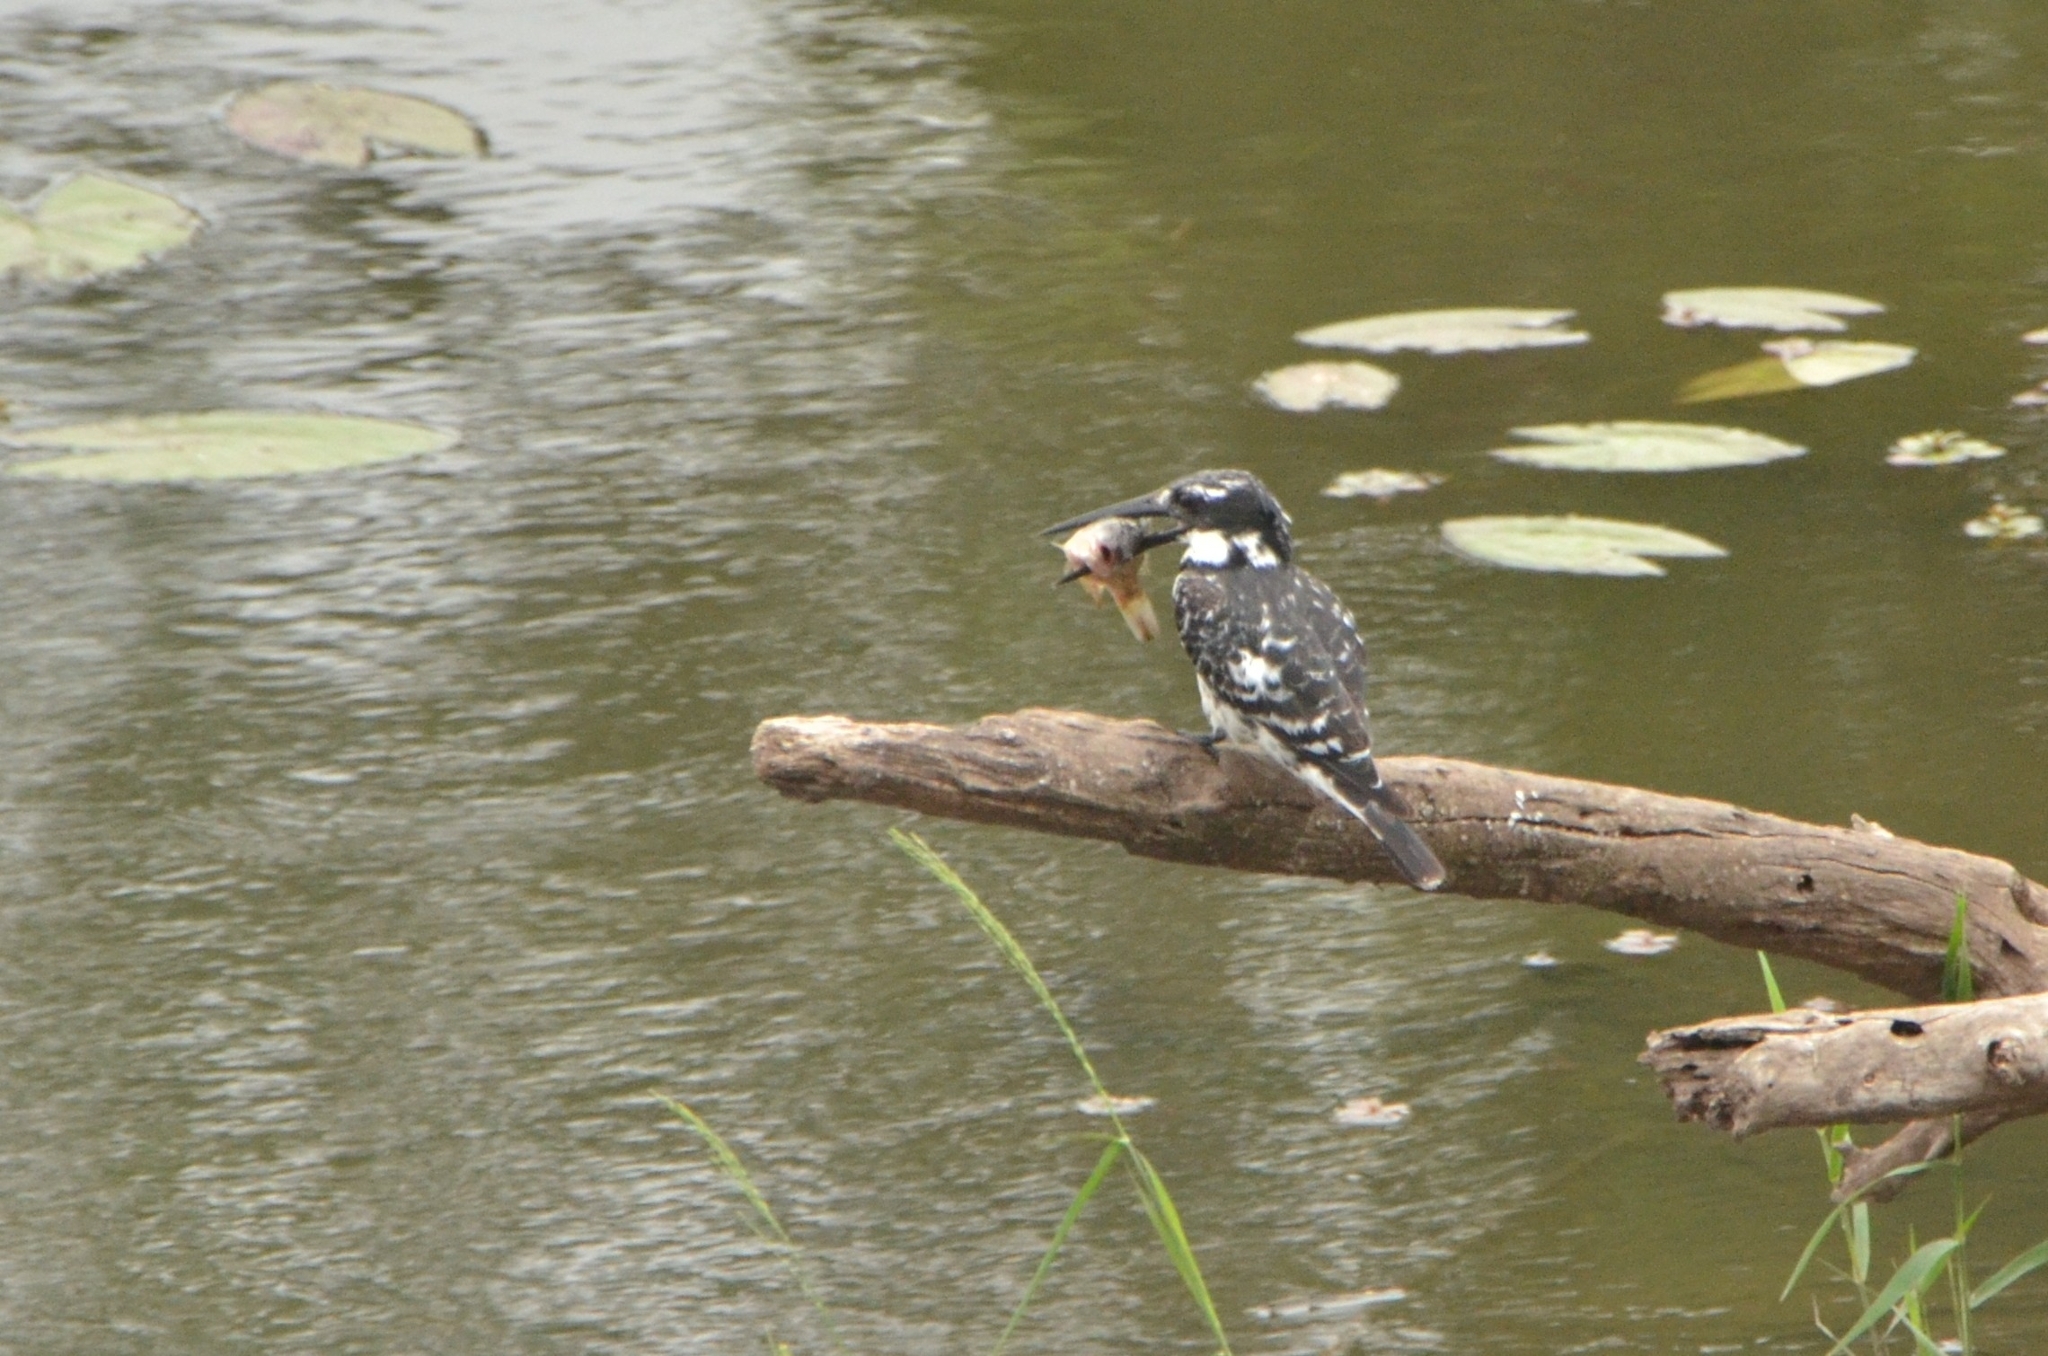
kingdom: Animalia
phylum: Chordata
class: Aves
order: Coraciiformes
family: Alcedinidae
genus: Ceryle
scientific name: Ceryle rudis
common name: Pied kingfisher
